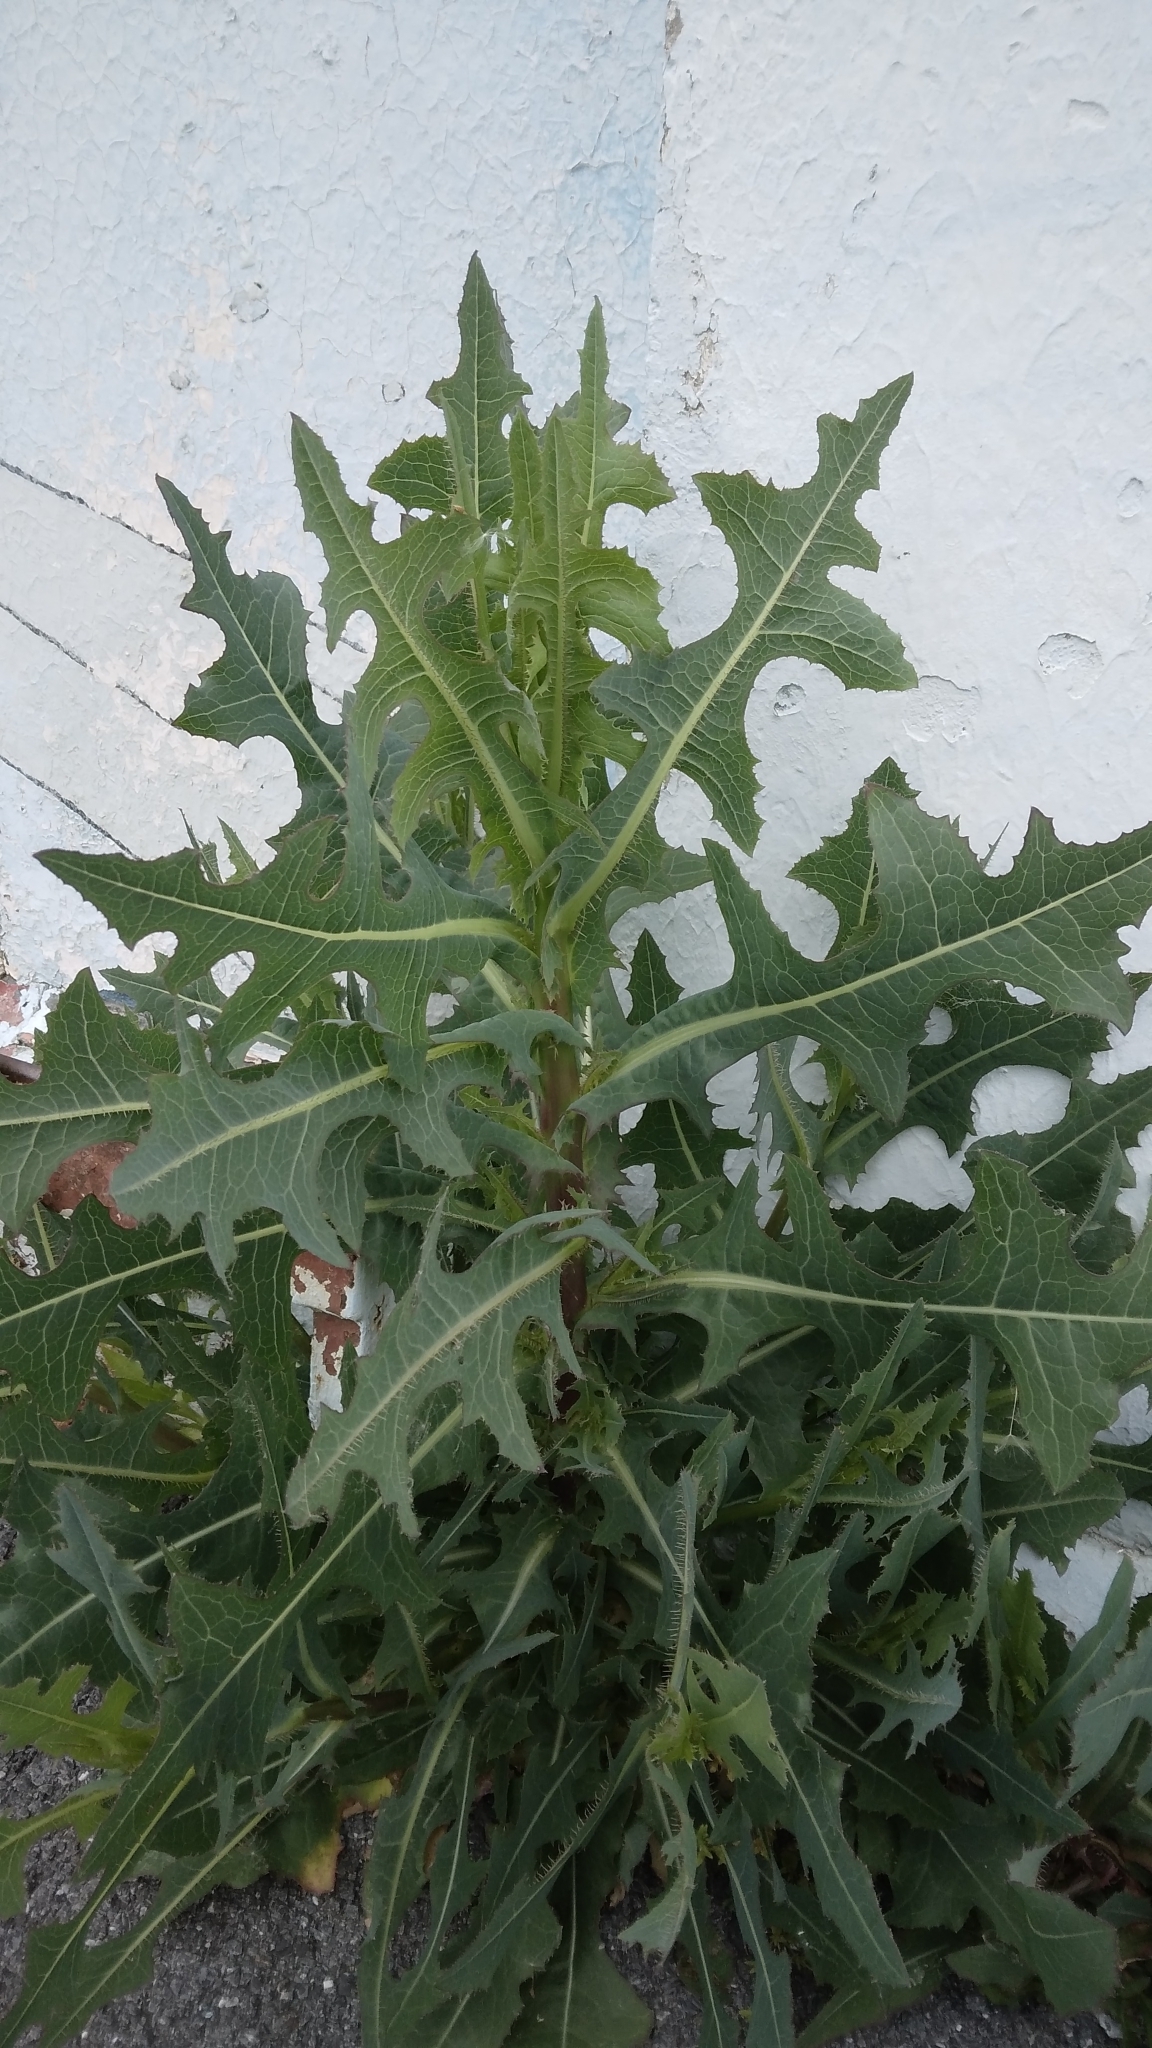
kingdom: Plantae
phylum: Tracheophyta
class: Magnoliopsida
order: Asterales
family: Asteraceae
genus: Lactuca
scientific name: Lactuca serriola
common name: Prickly lettuce
